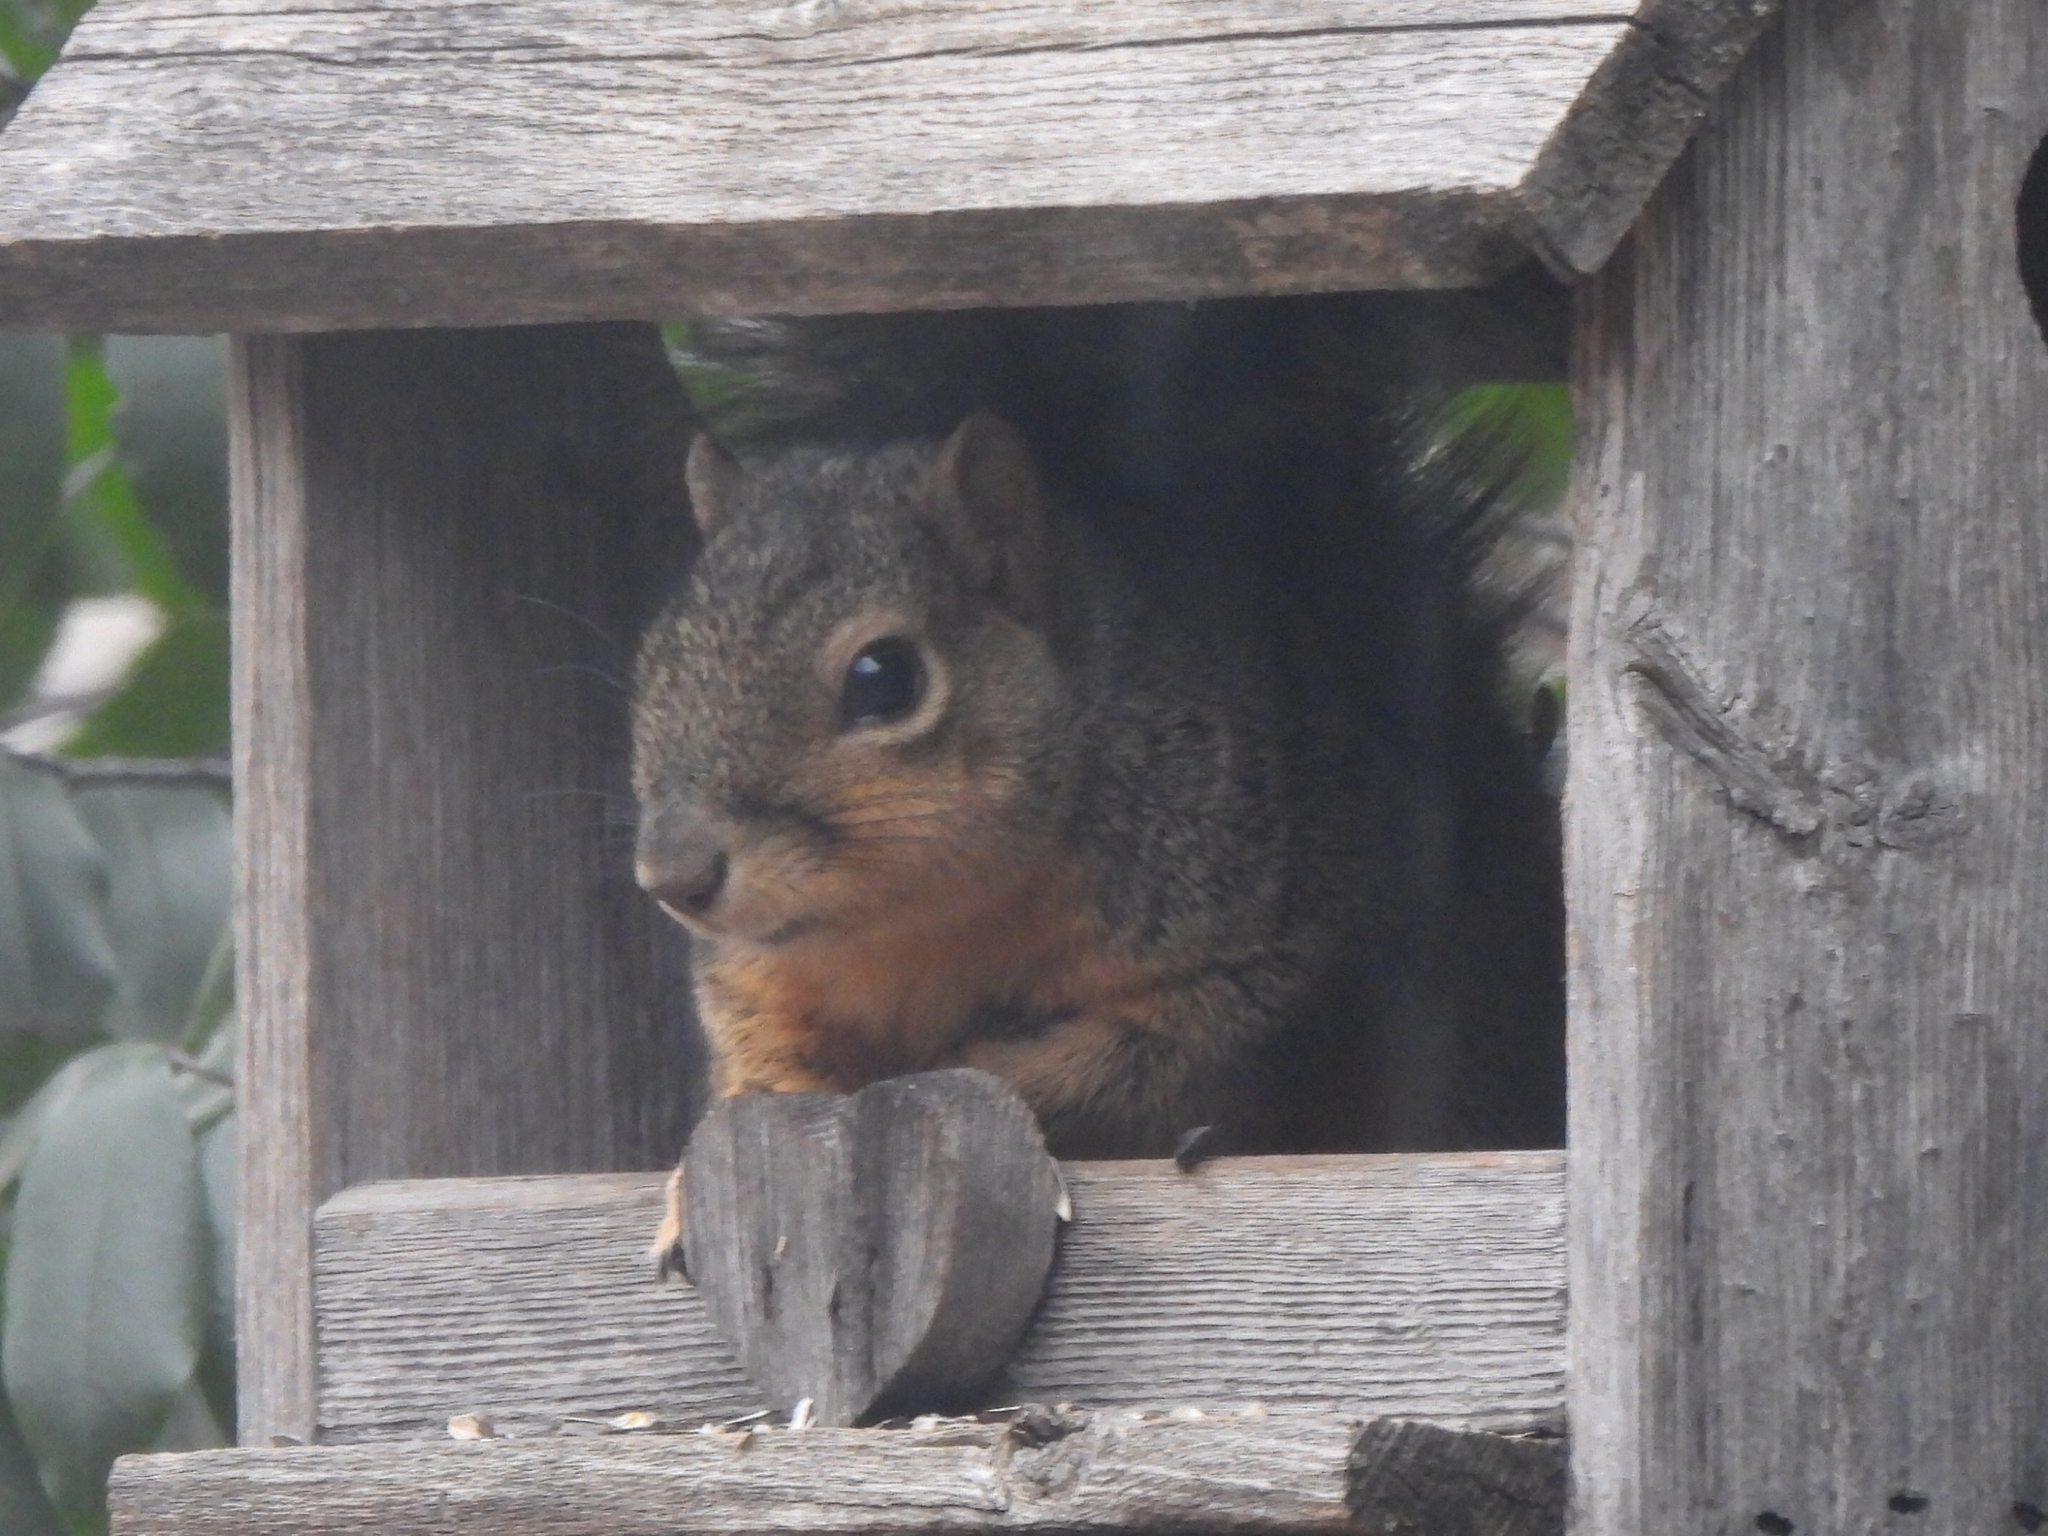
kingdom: Animalia
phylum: Chordata
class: Mammalia
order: Rodentia
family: Sciuridae
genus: Sciurus
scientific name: Sciurus niger
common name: Fox squirrel
